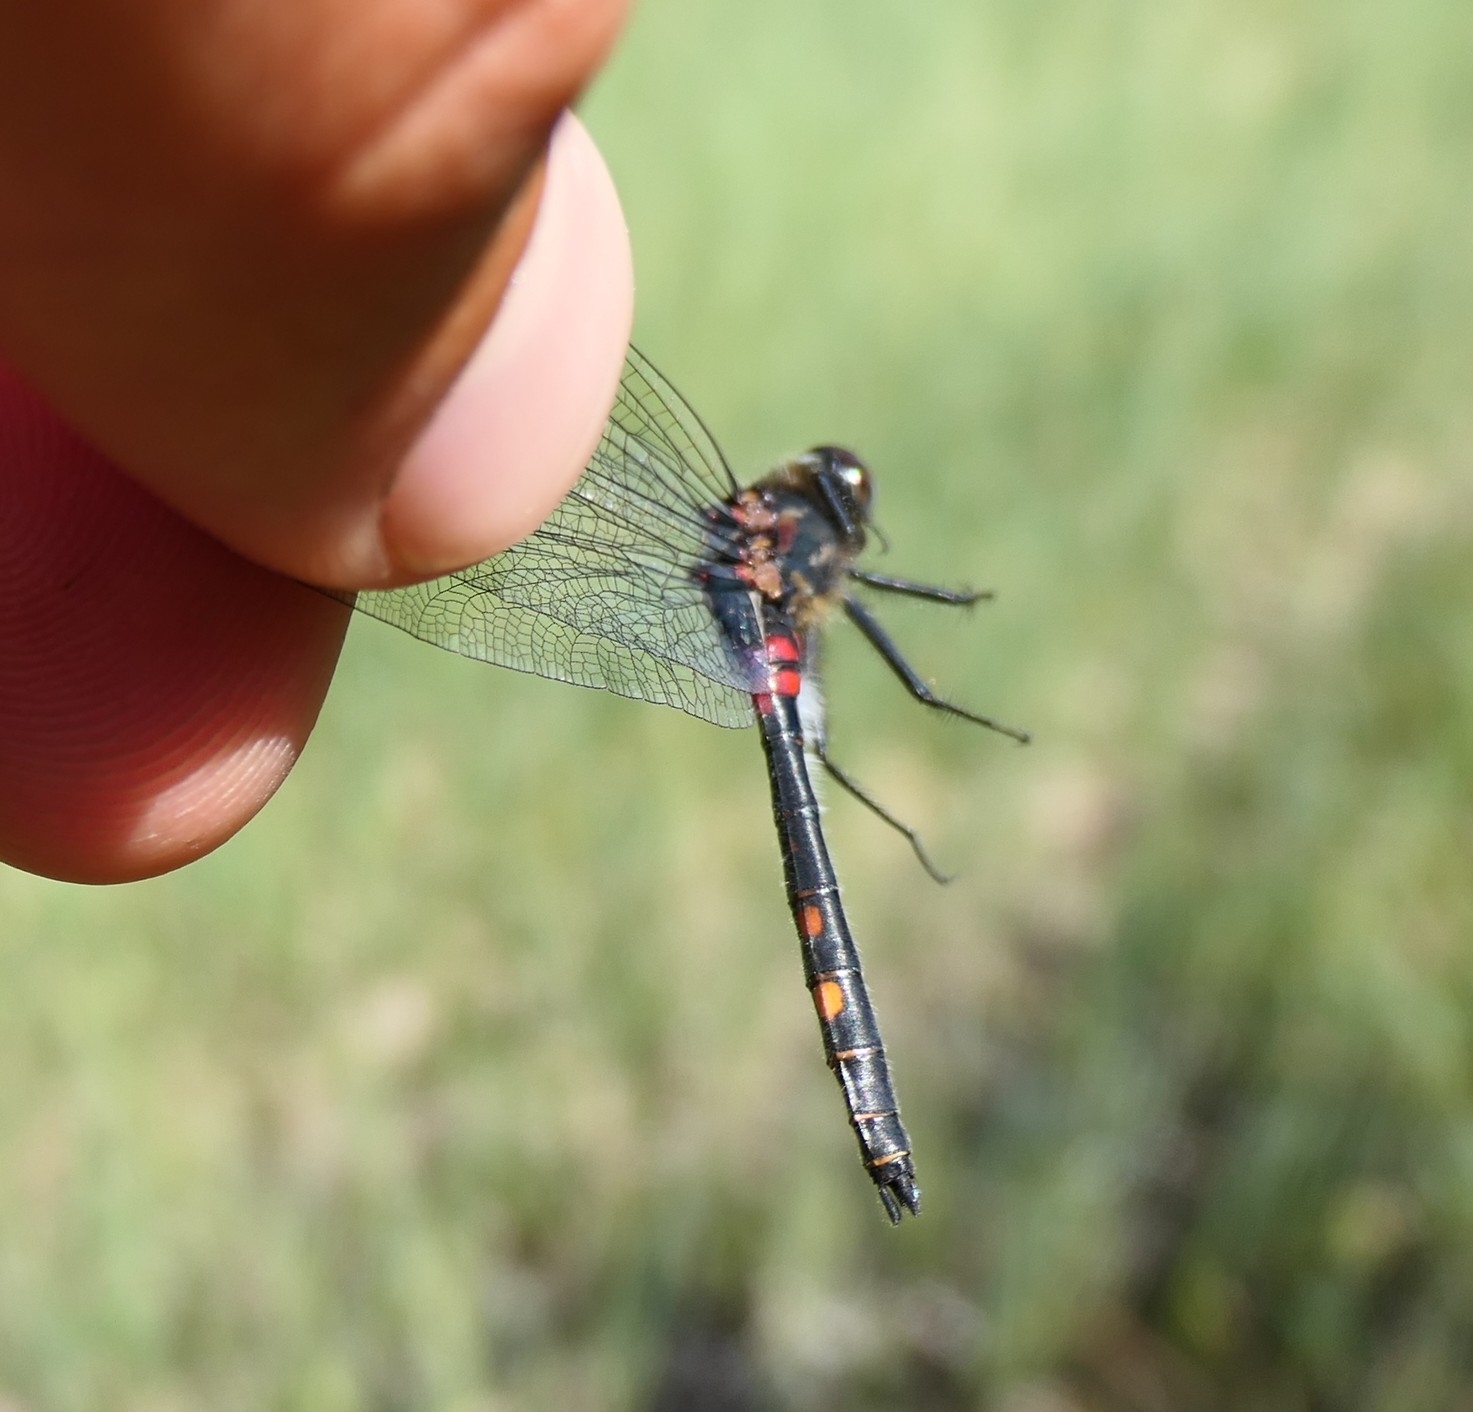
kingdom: Animalia
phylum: Arthropoda
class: Insecta
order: Odonata
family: Libellulidae
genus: Leucorrhinia
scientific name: Leucorrhinia dubia
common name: White-faced darter
